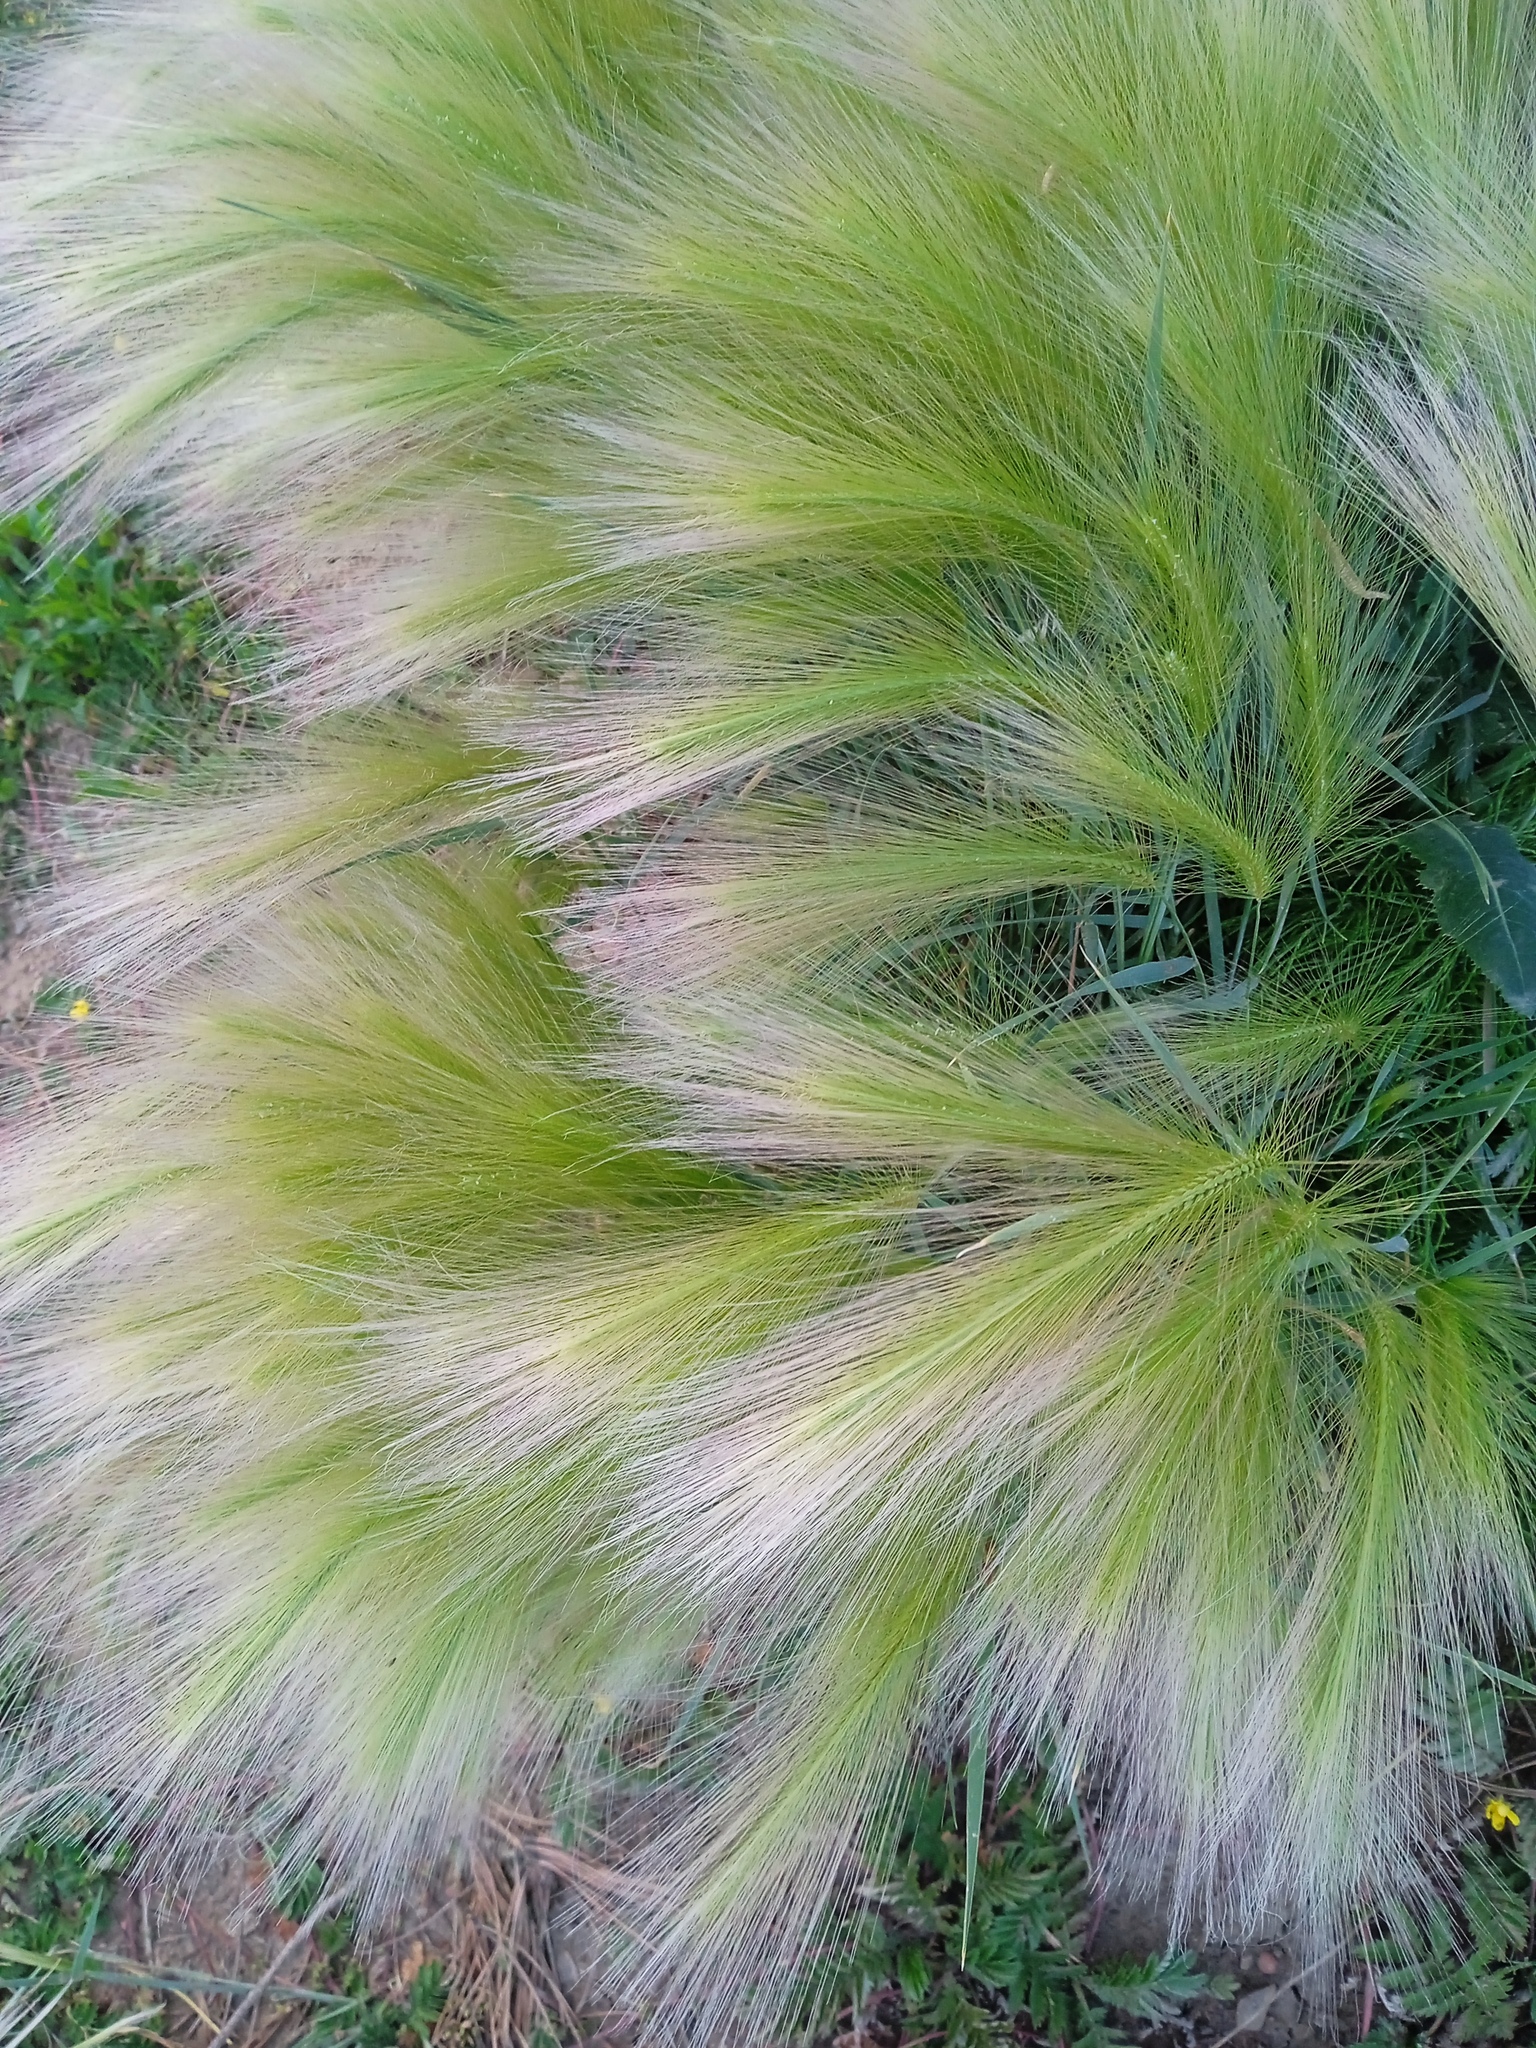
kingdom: Plantae
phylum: Tracheophyta
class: Liliopsida
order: Poales
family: Poaceae
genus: Hordeum
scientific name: Hordeum jubatum
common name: Foxtail barley
